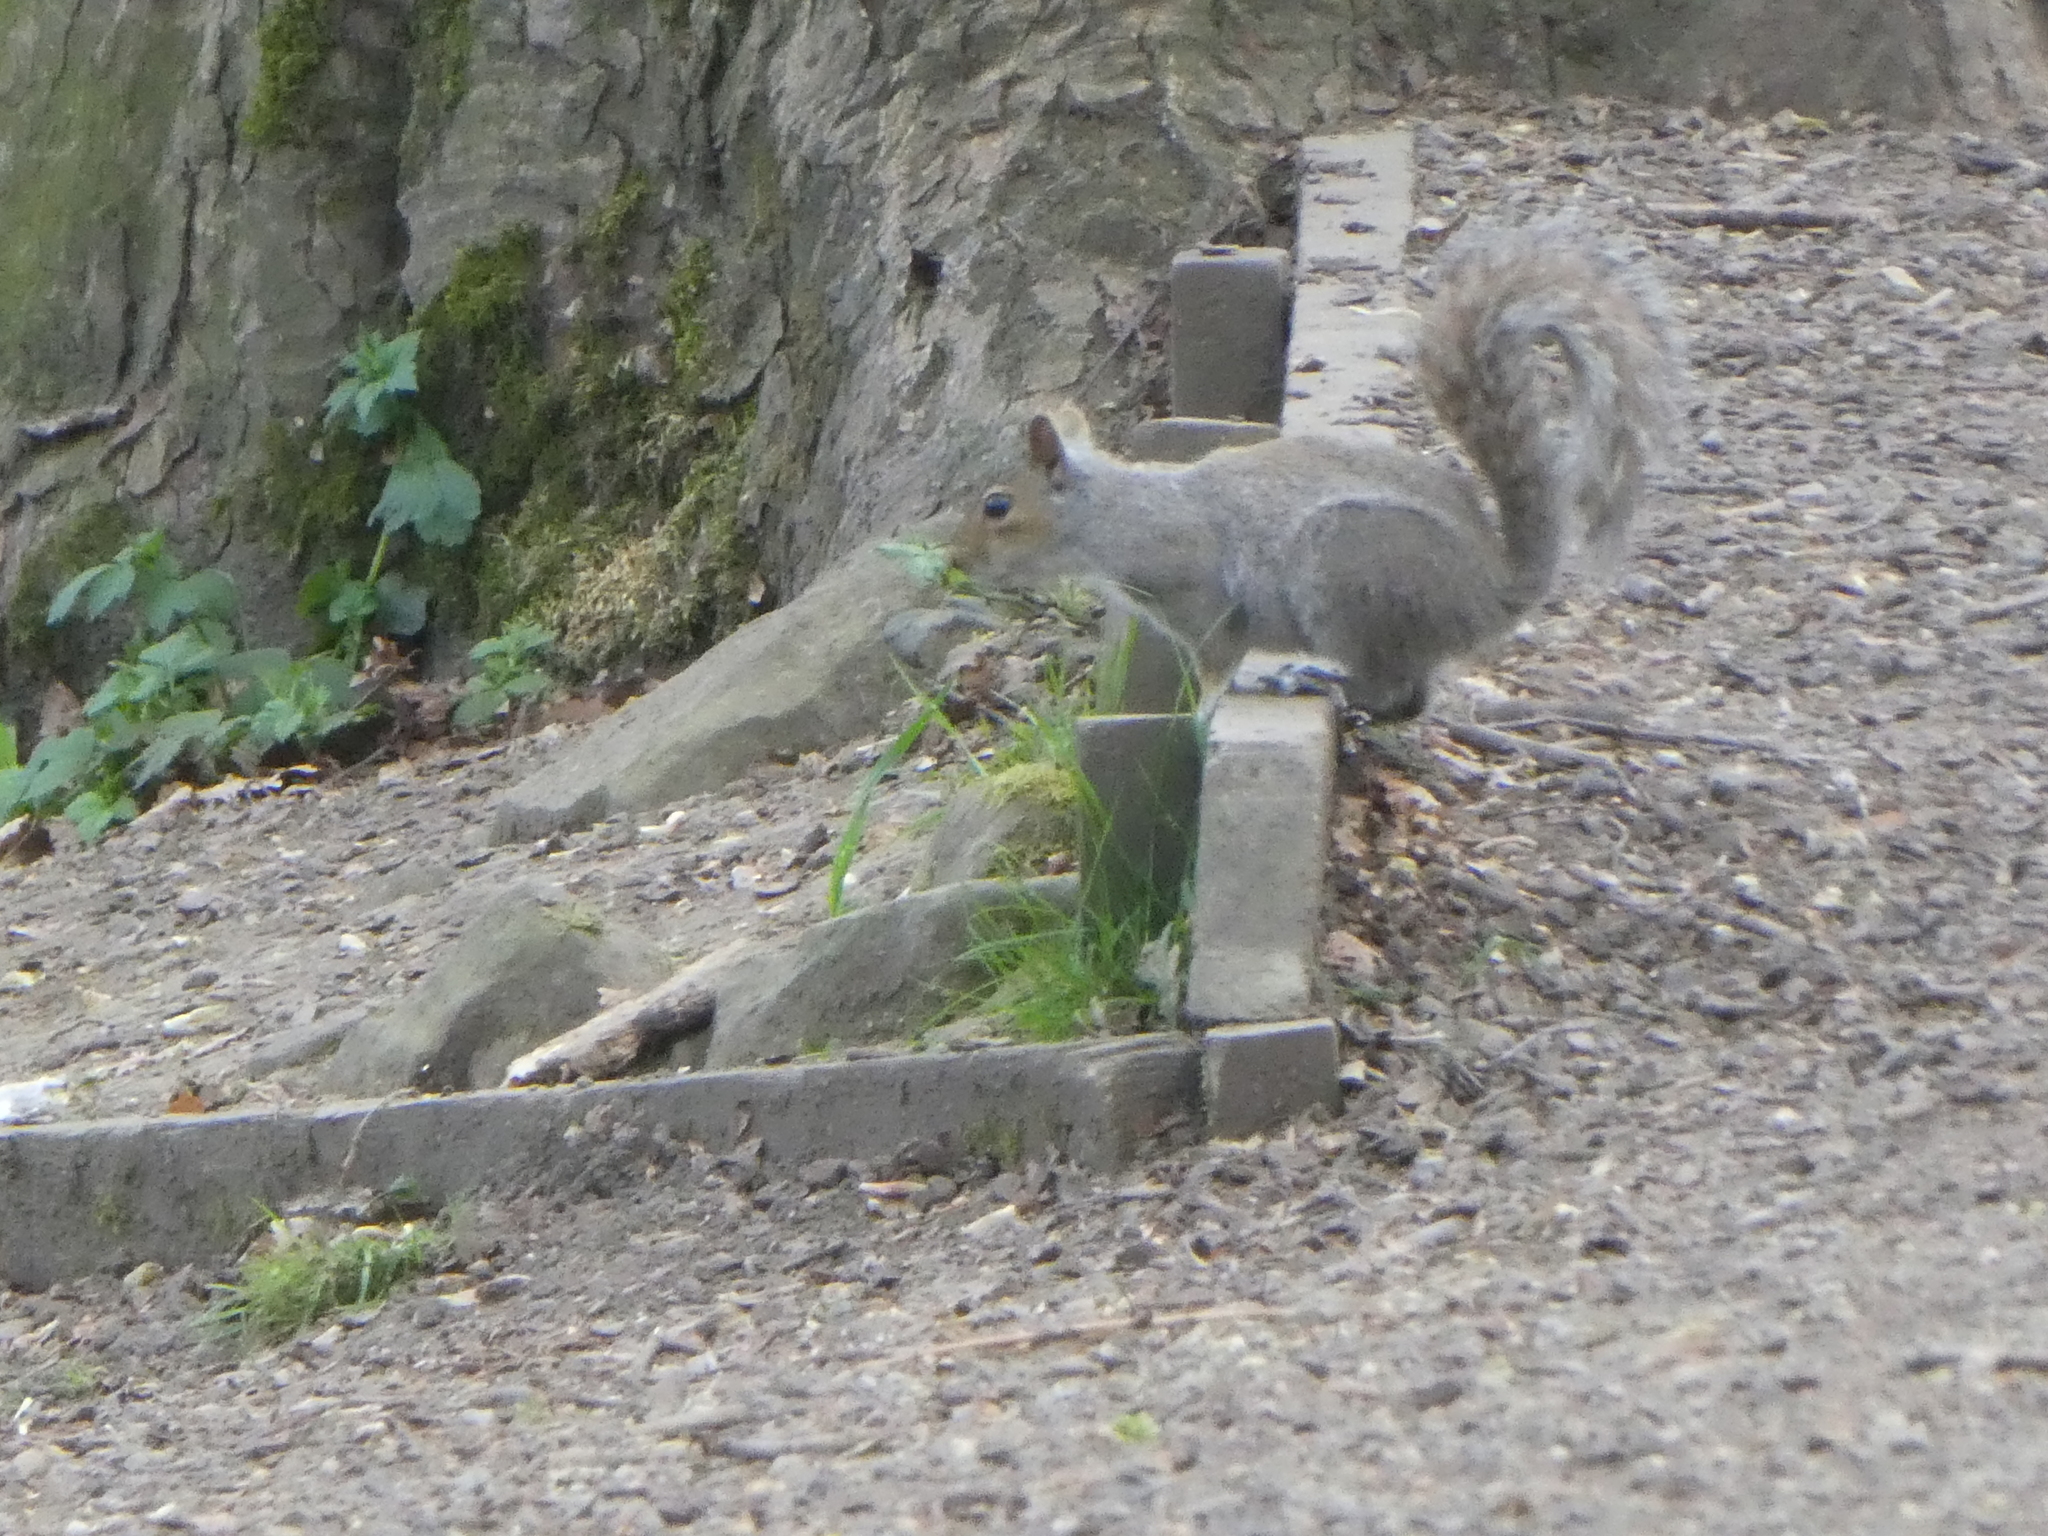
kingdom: Animalia
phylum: Chordata
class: Mammalia
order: Rodentia
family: Sciuridae
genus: Sciurus
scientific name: Sciurus carolinensis
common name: Eastern gray squirrel
